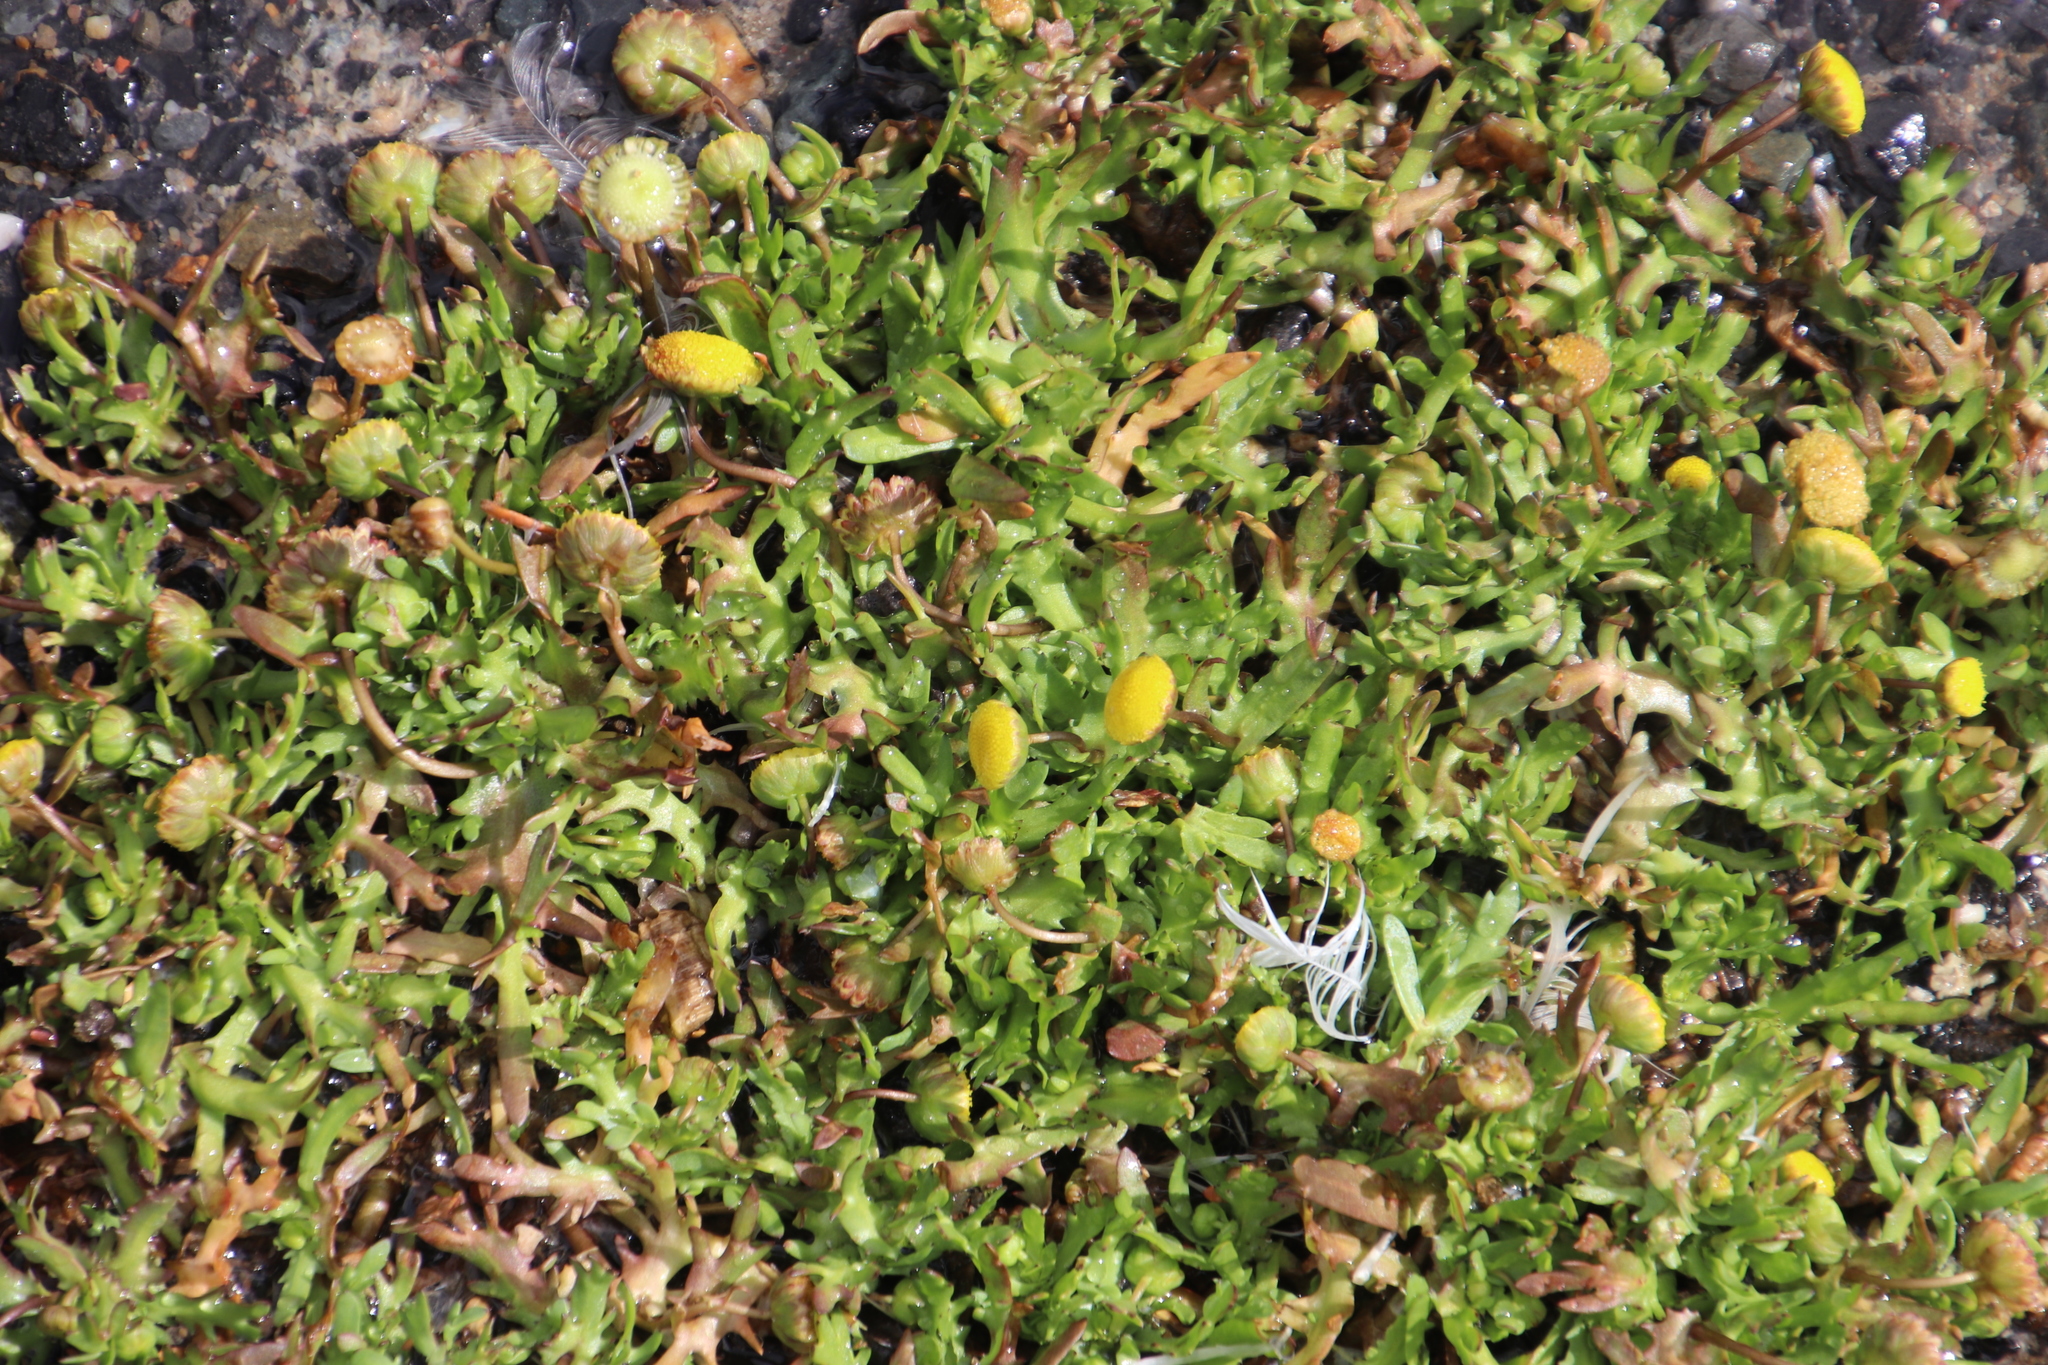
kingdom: Plantae
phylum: Tracheophyta
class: Magnoliopsida
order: Asterales
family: Asteraceae
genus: Cotula
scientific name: Cotula coronopifolia
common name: Buttonweed
